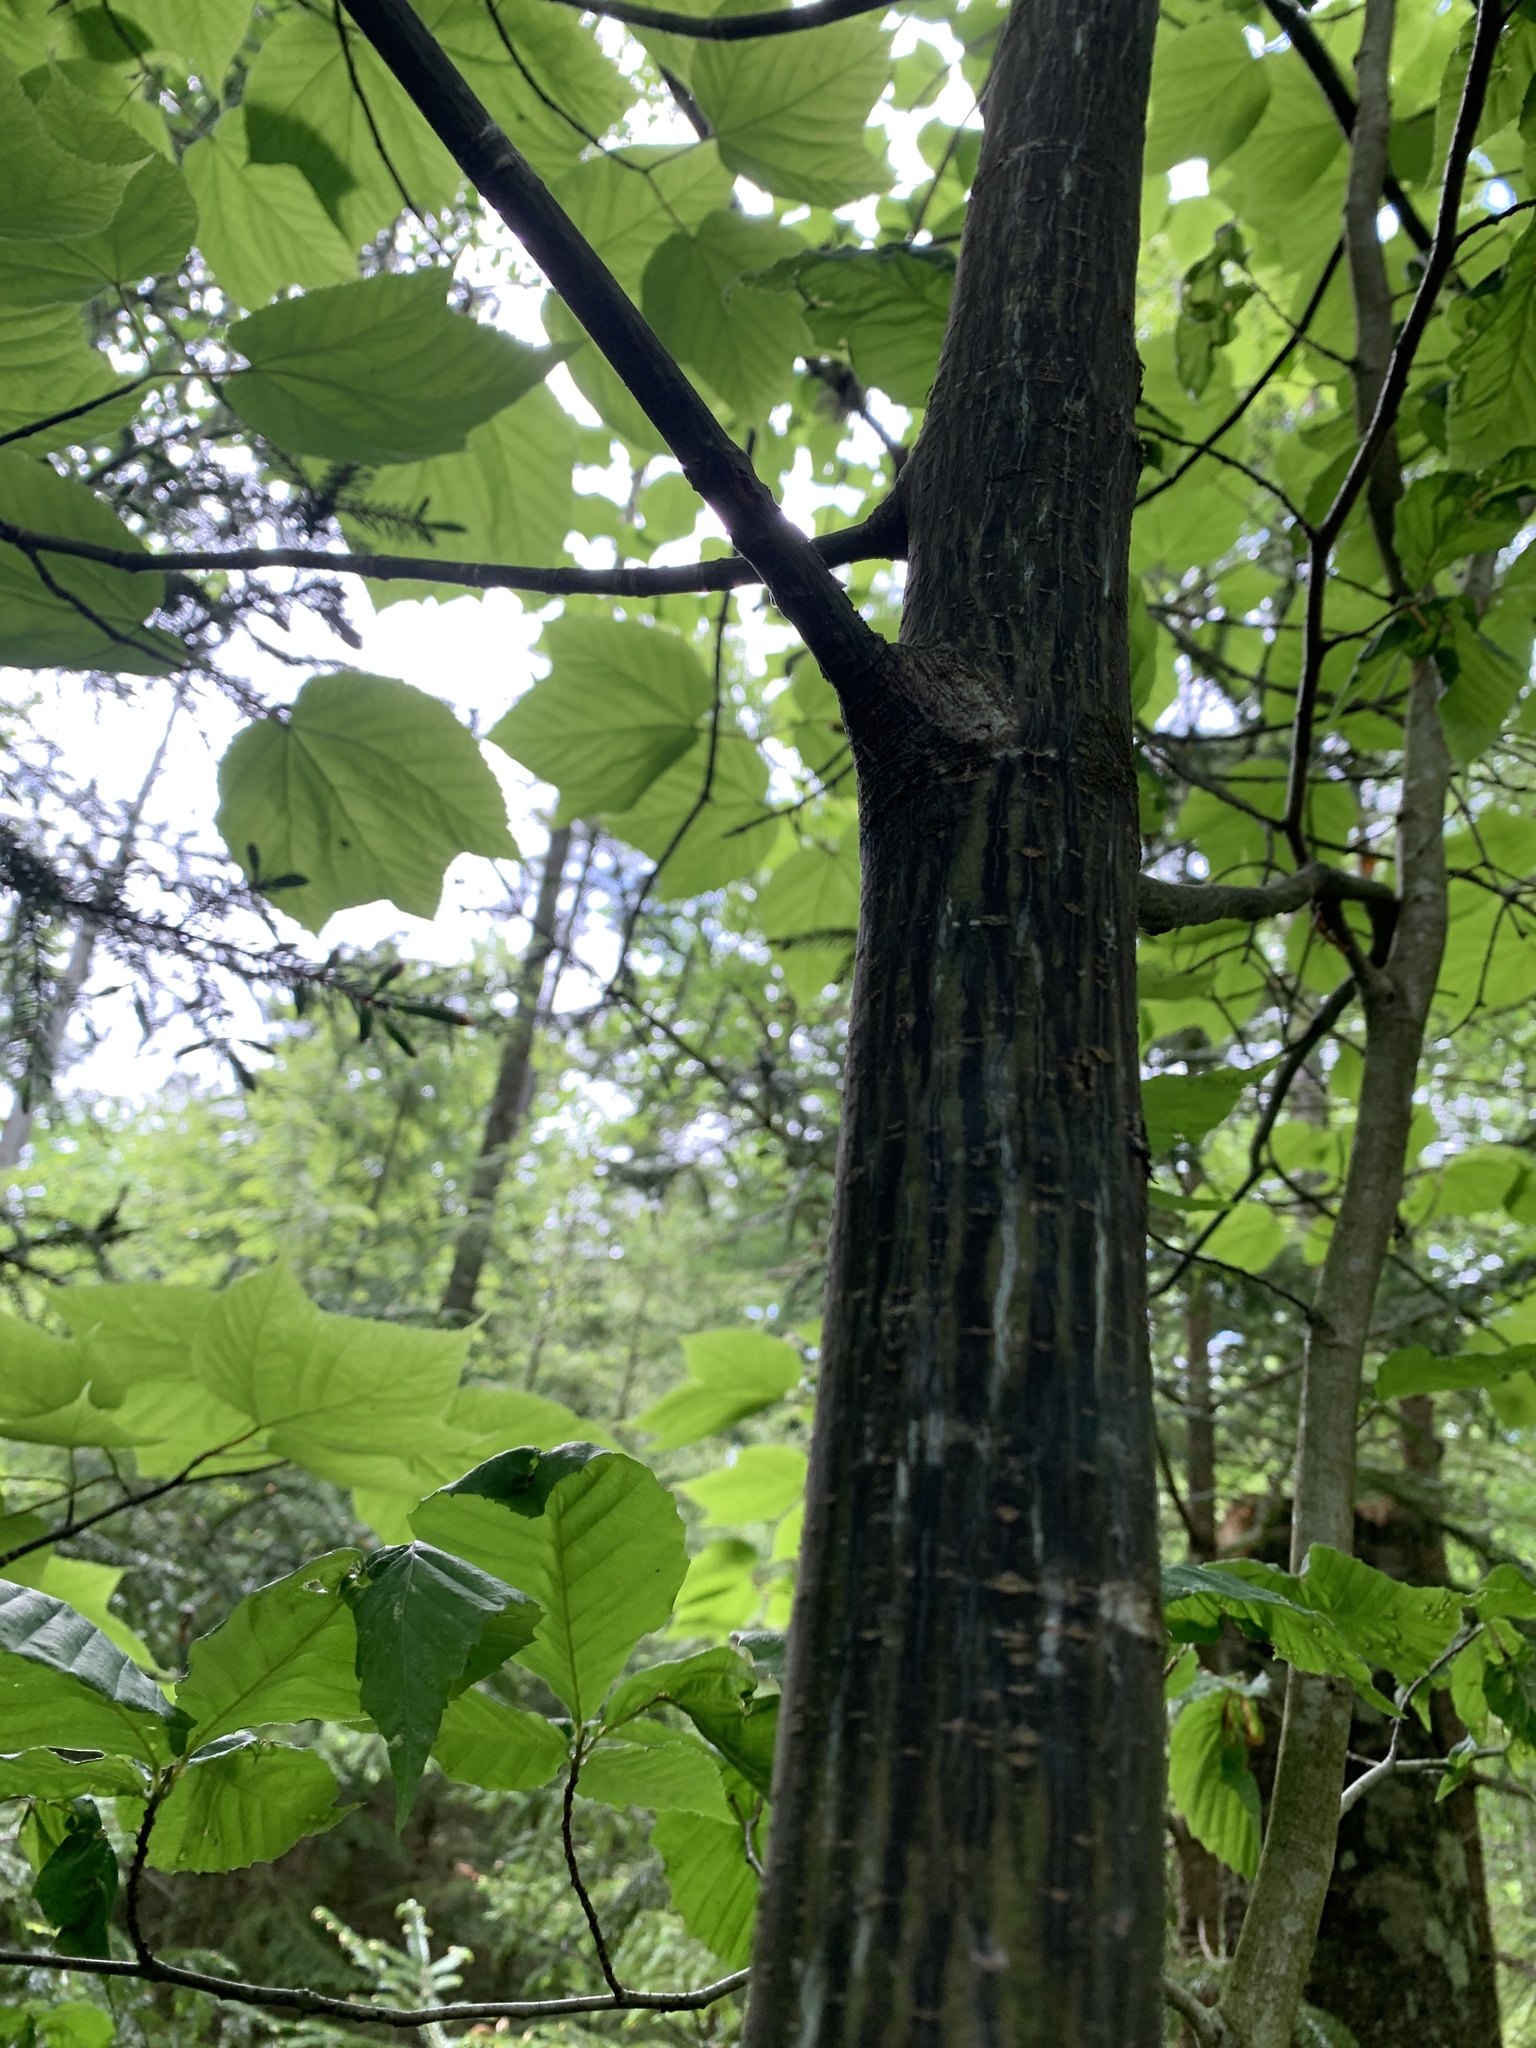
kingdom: Plantae
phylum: Tracheophyta
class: Magnoliopsida
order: Sapindales
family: Sapindaceae
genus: Acer
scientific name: Acer pensylvanicum
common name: Moosewood
